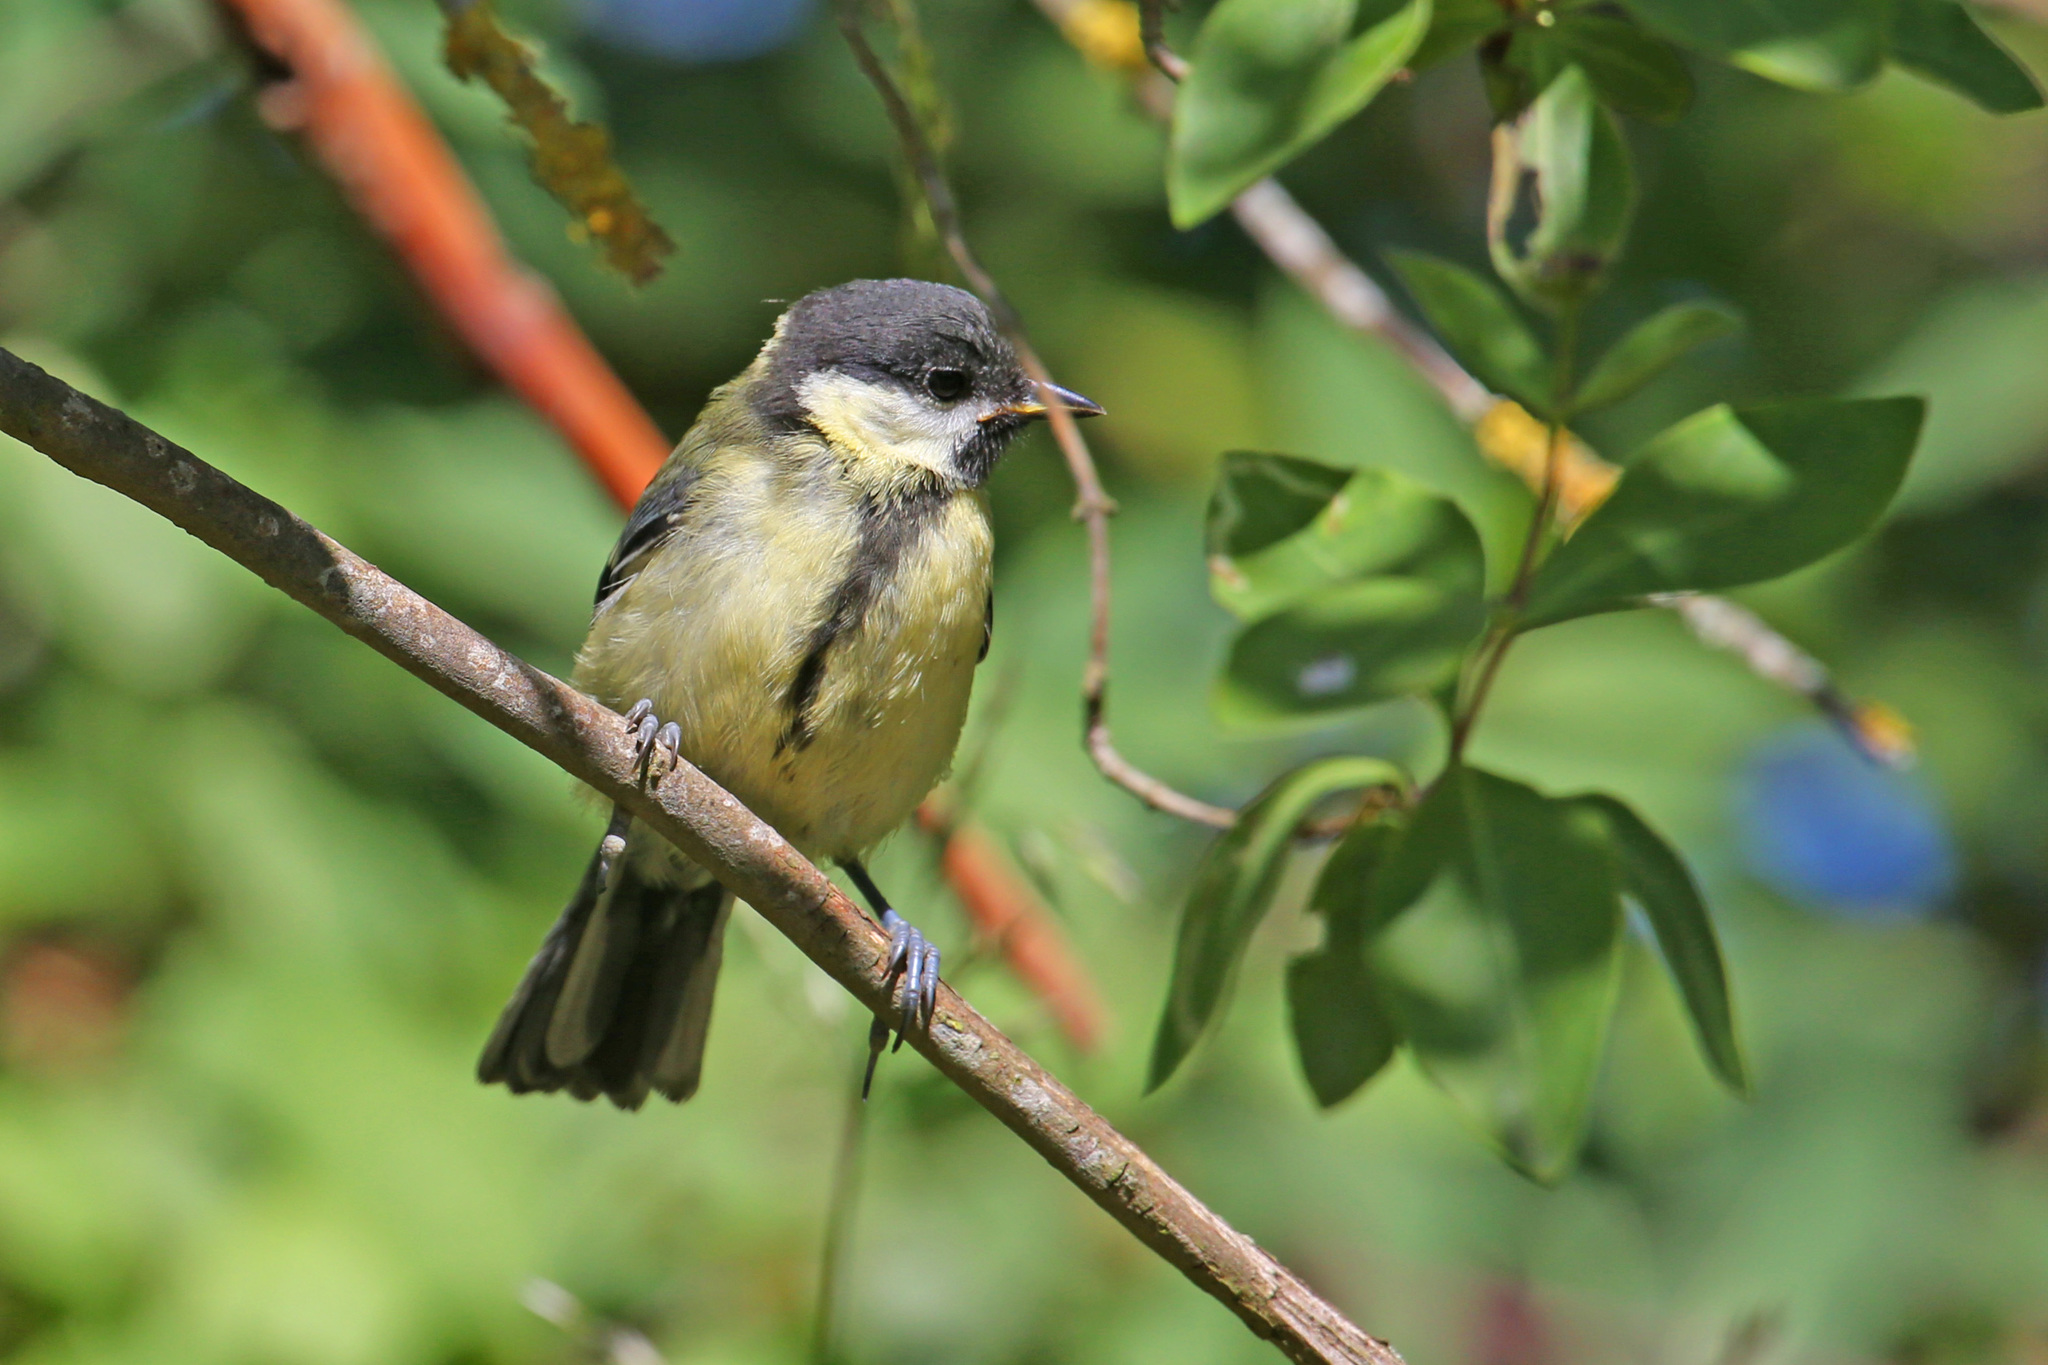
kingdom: Animalia
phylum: Chordata
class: Aves
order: Passeriformes
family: Paridae
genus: Parus
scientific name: Parus major
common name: Great tit
